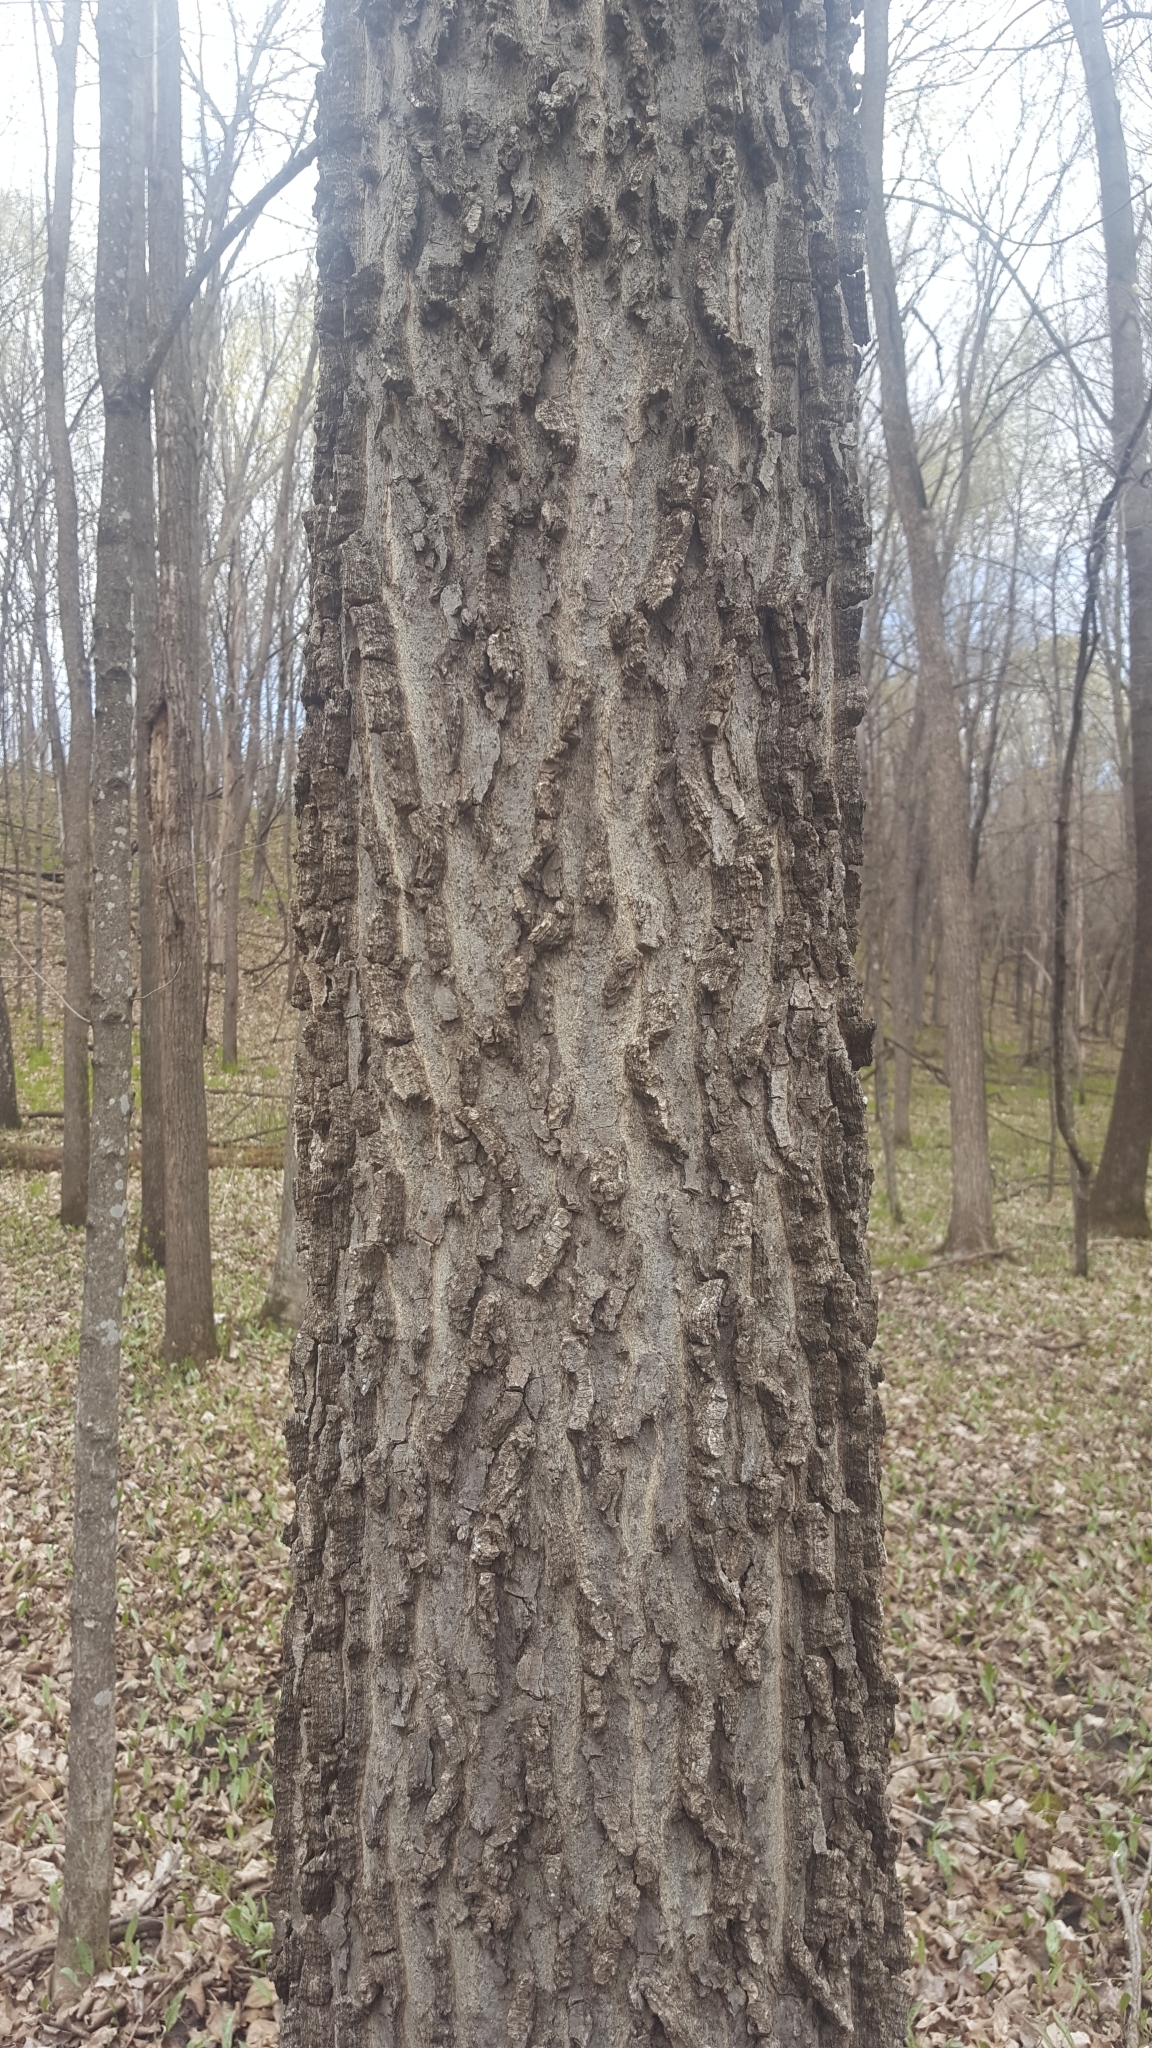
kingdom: Plantae
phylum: Tracheophyta
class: Magnoliopsida
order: Rosales
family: Cannabaceae
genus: Celtis
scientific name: Celtis occidentalis
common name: Common hackberry
